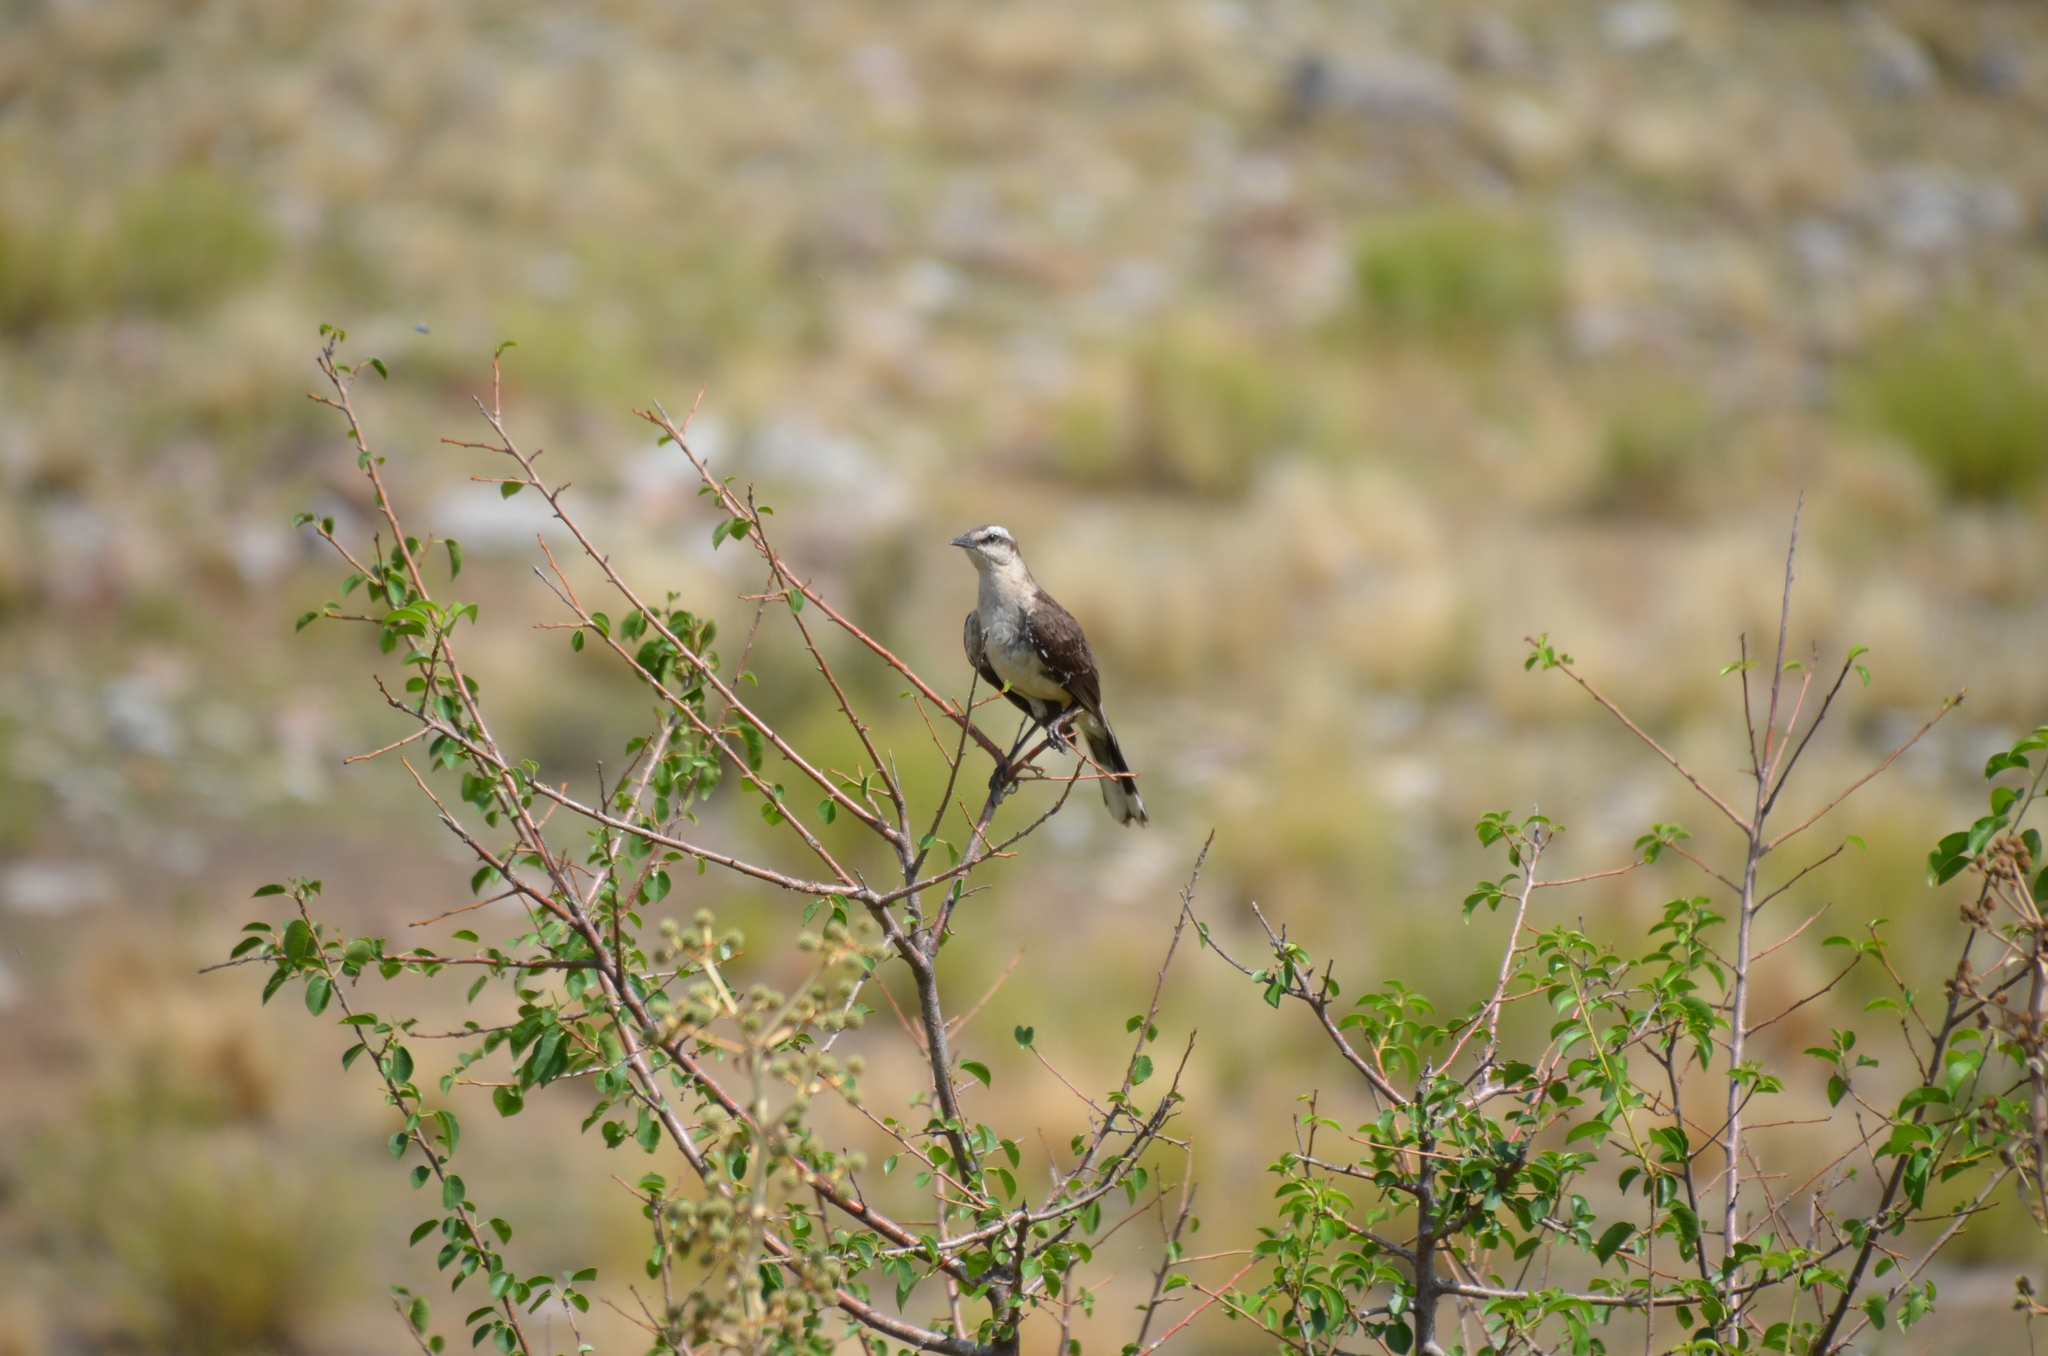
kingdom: Animalia
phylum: Chordata
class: Aves
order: Passeriformes
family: Mimidae
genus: Mimus
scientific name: Mimus saturninus
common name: Chalk-browed mockingbird
